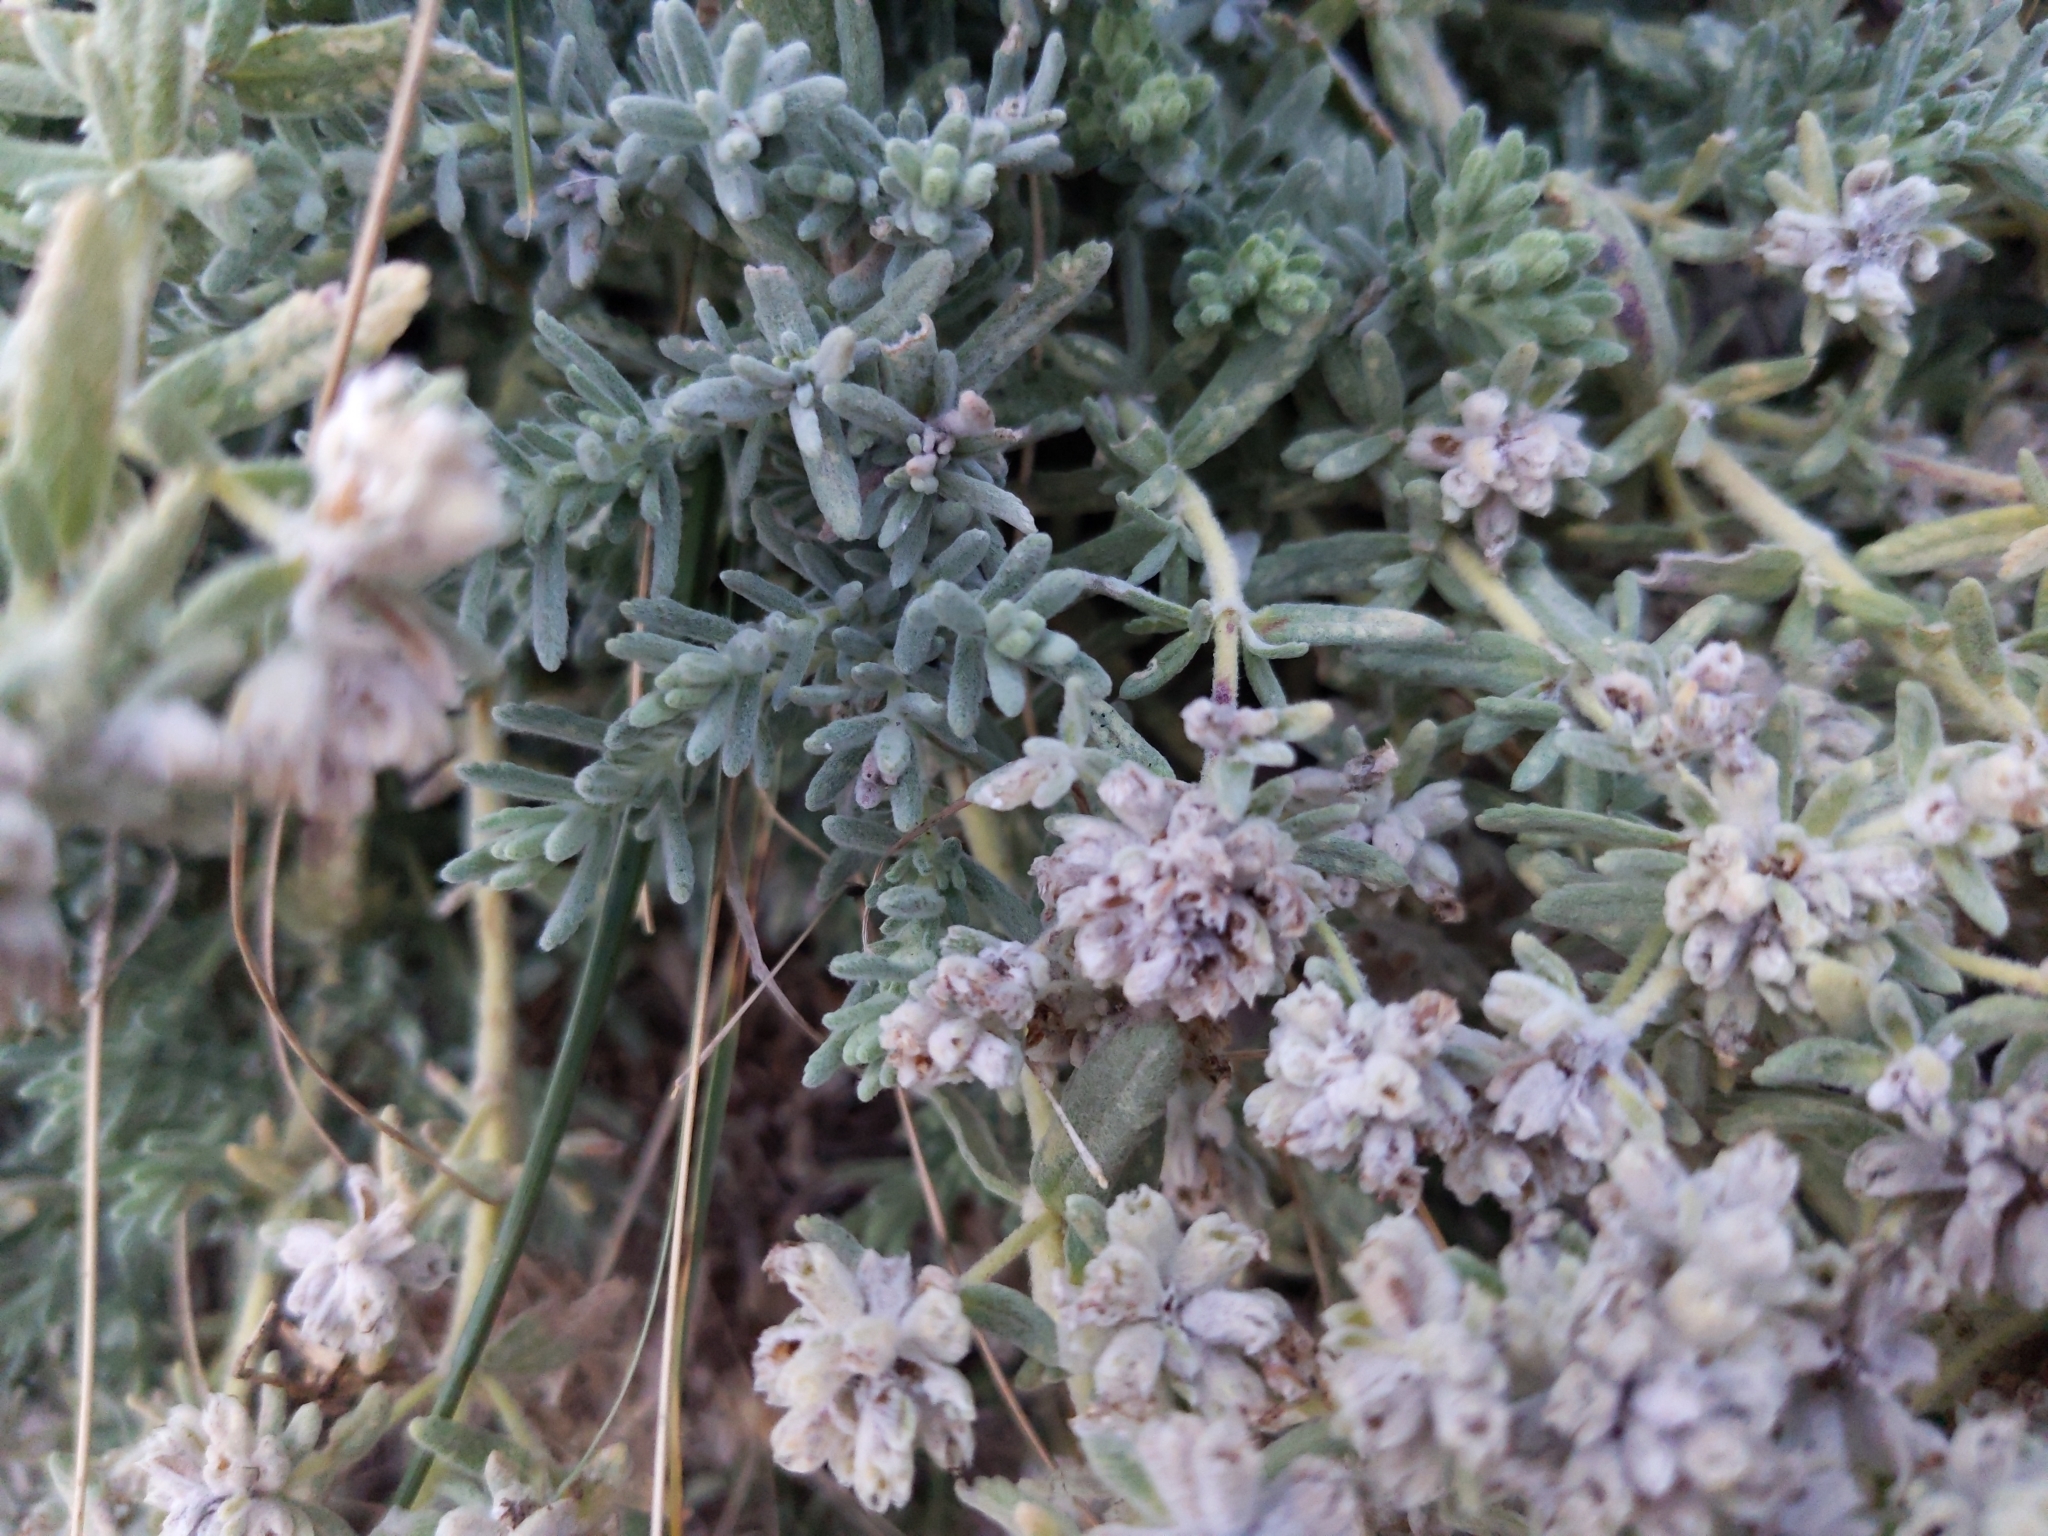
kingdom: Plantae
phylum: Tracheophyta
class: Magnoliopsida
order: Lamiales
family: Lamiaceae
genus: Teucrium
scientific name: Teucrium capitatum
